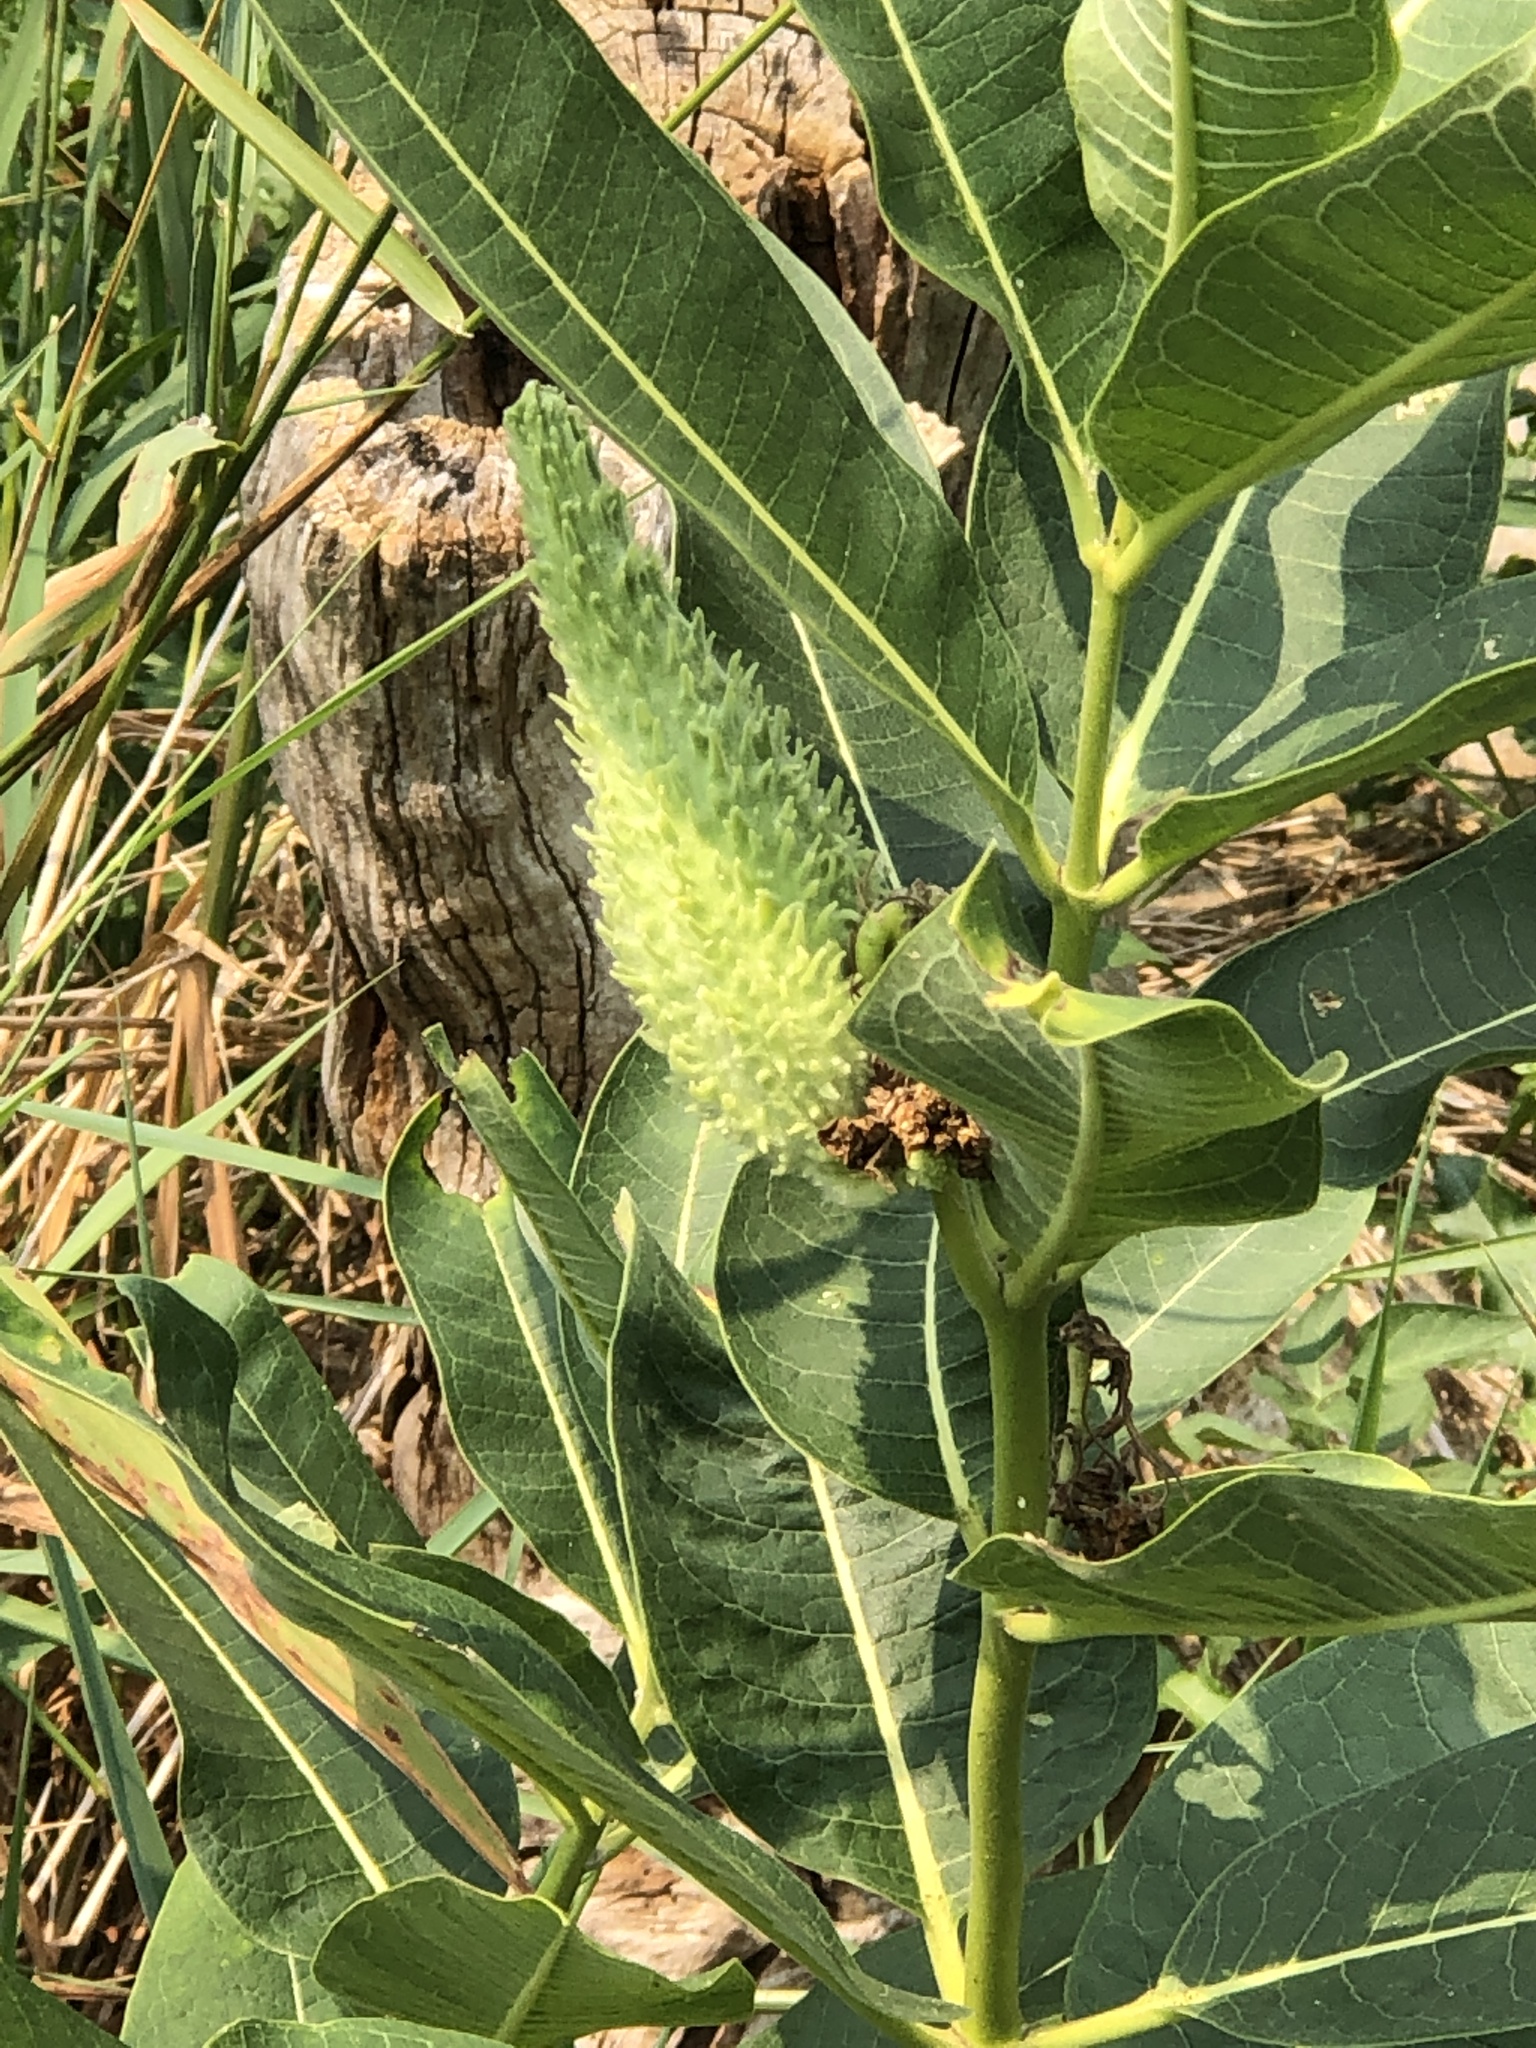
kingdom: Plantae
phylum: Tracheophyta
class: Magnoliopsida
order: Gentianales
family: Apocynaceae
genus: Asclepias
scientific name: Asclepias syriaca
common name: Common milkweed
